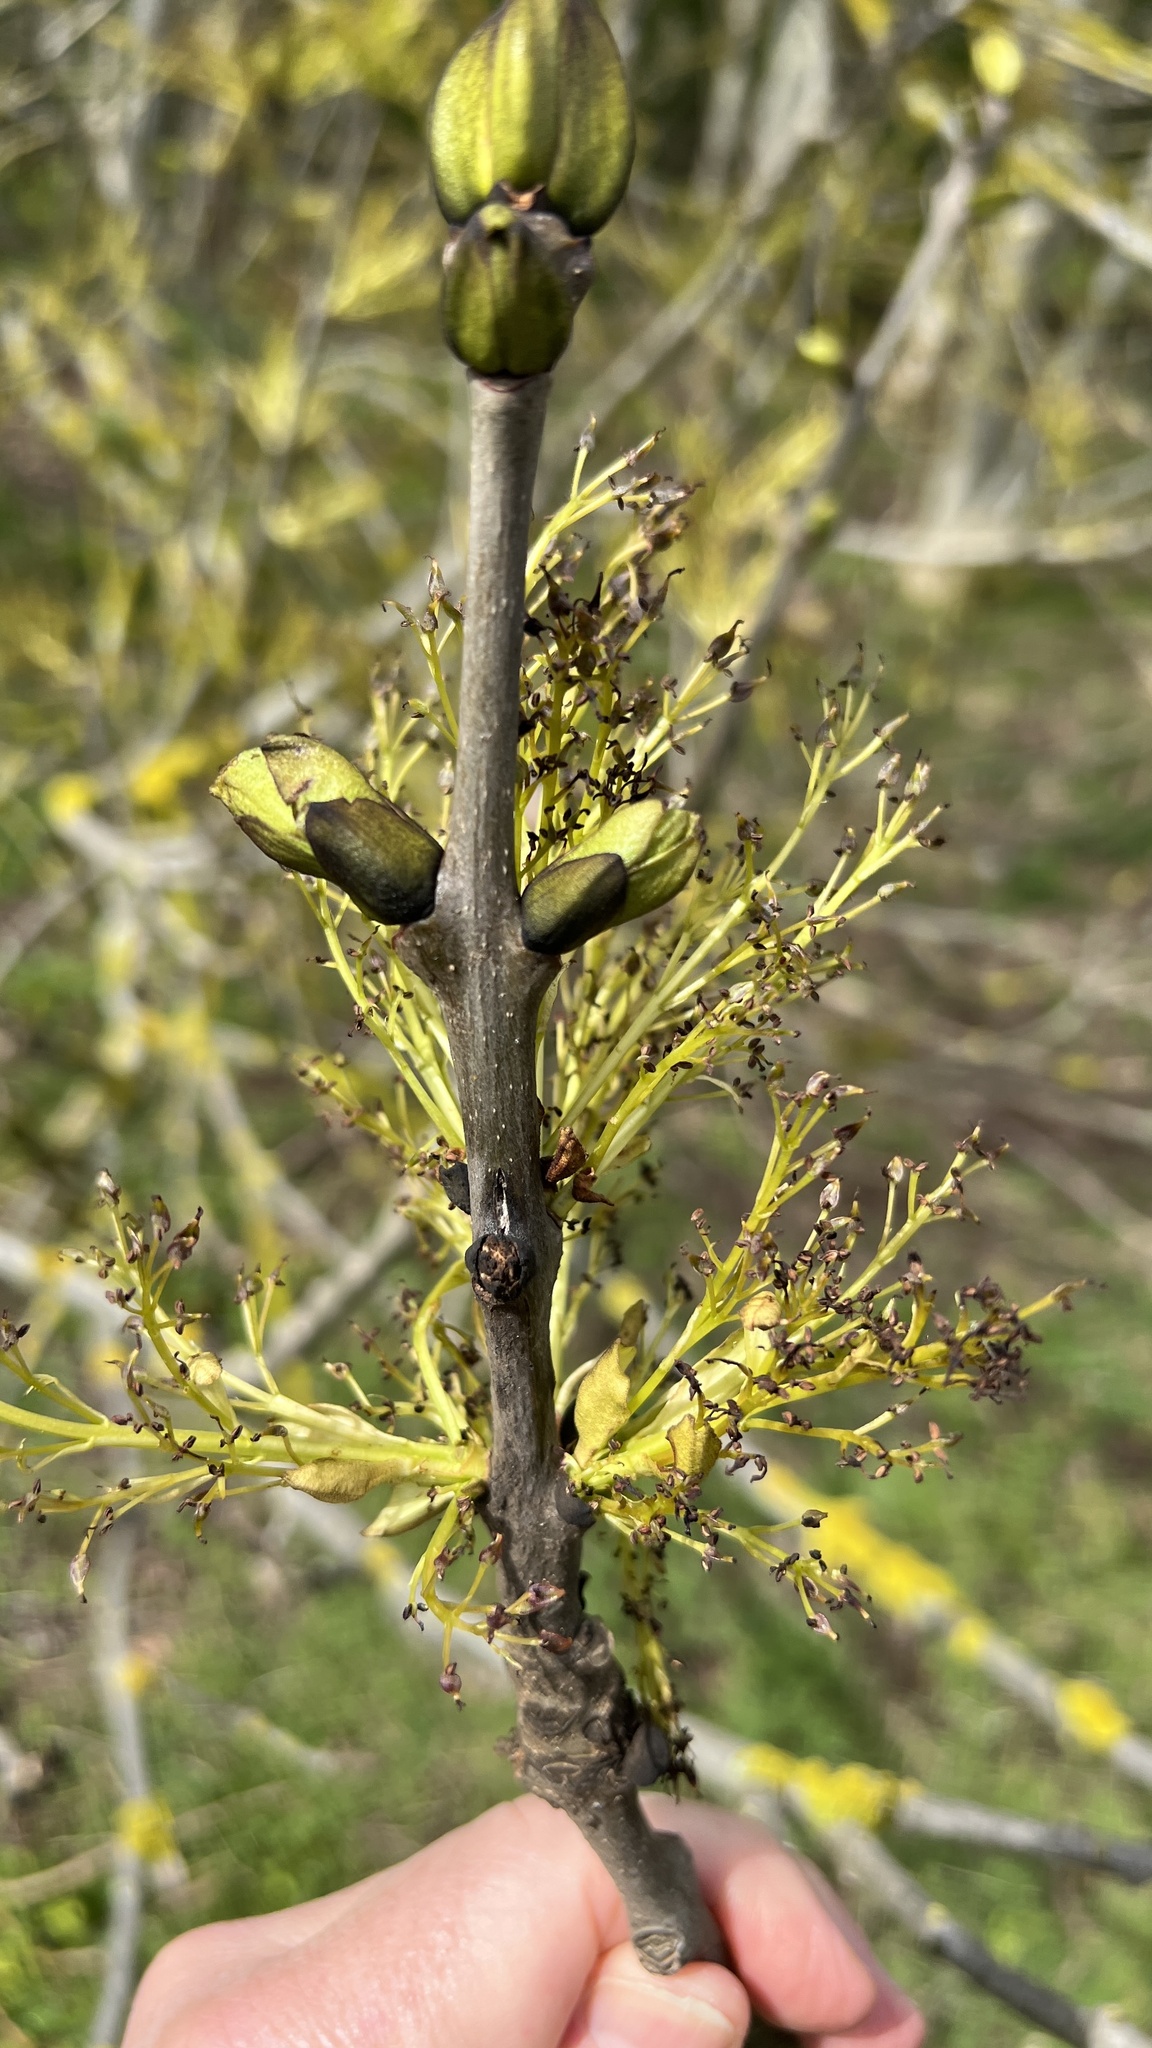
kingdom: Plantae
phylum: Tracheophyta
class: Magnoliopsida
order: Lamiales
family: Oleaceae
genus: Fraxinus
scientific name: Fraxinus excelsior
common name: European ash
